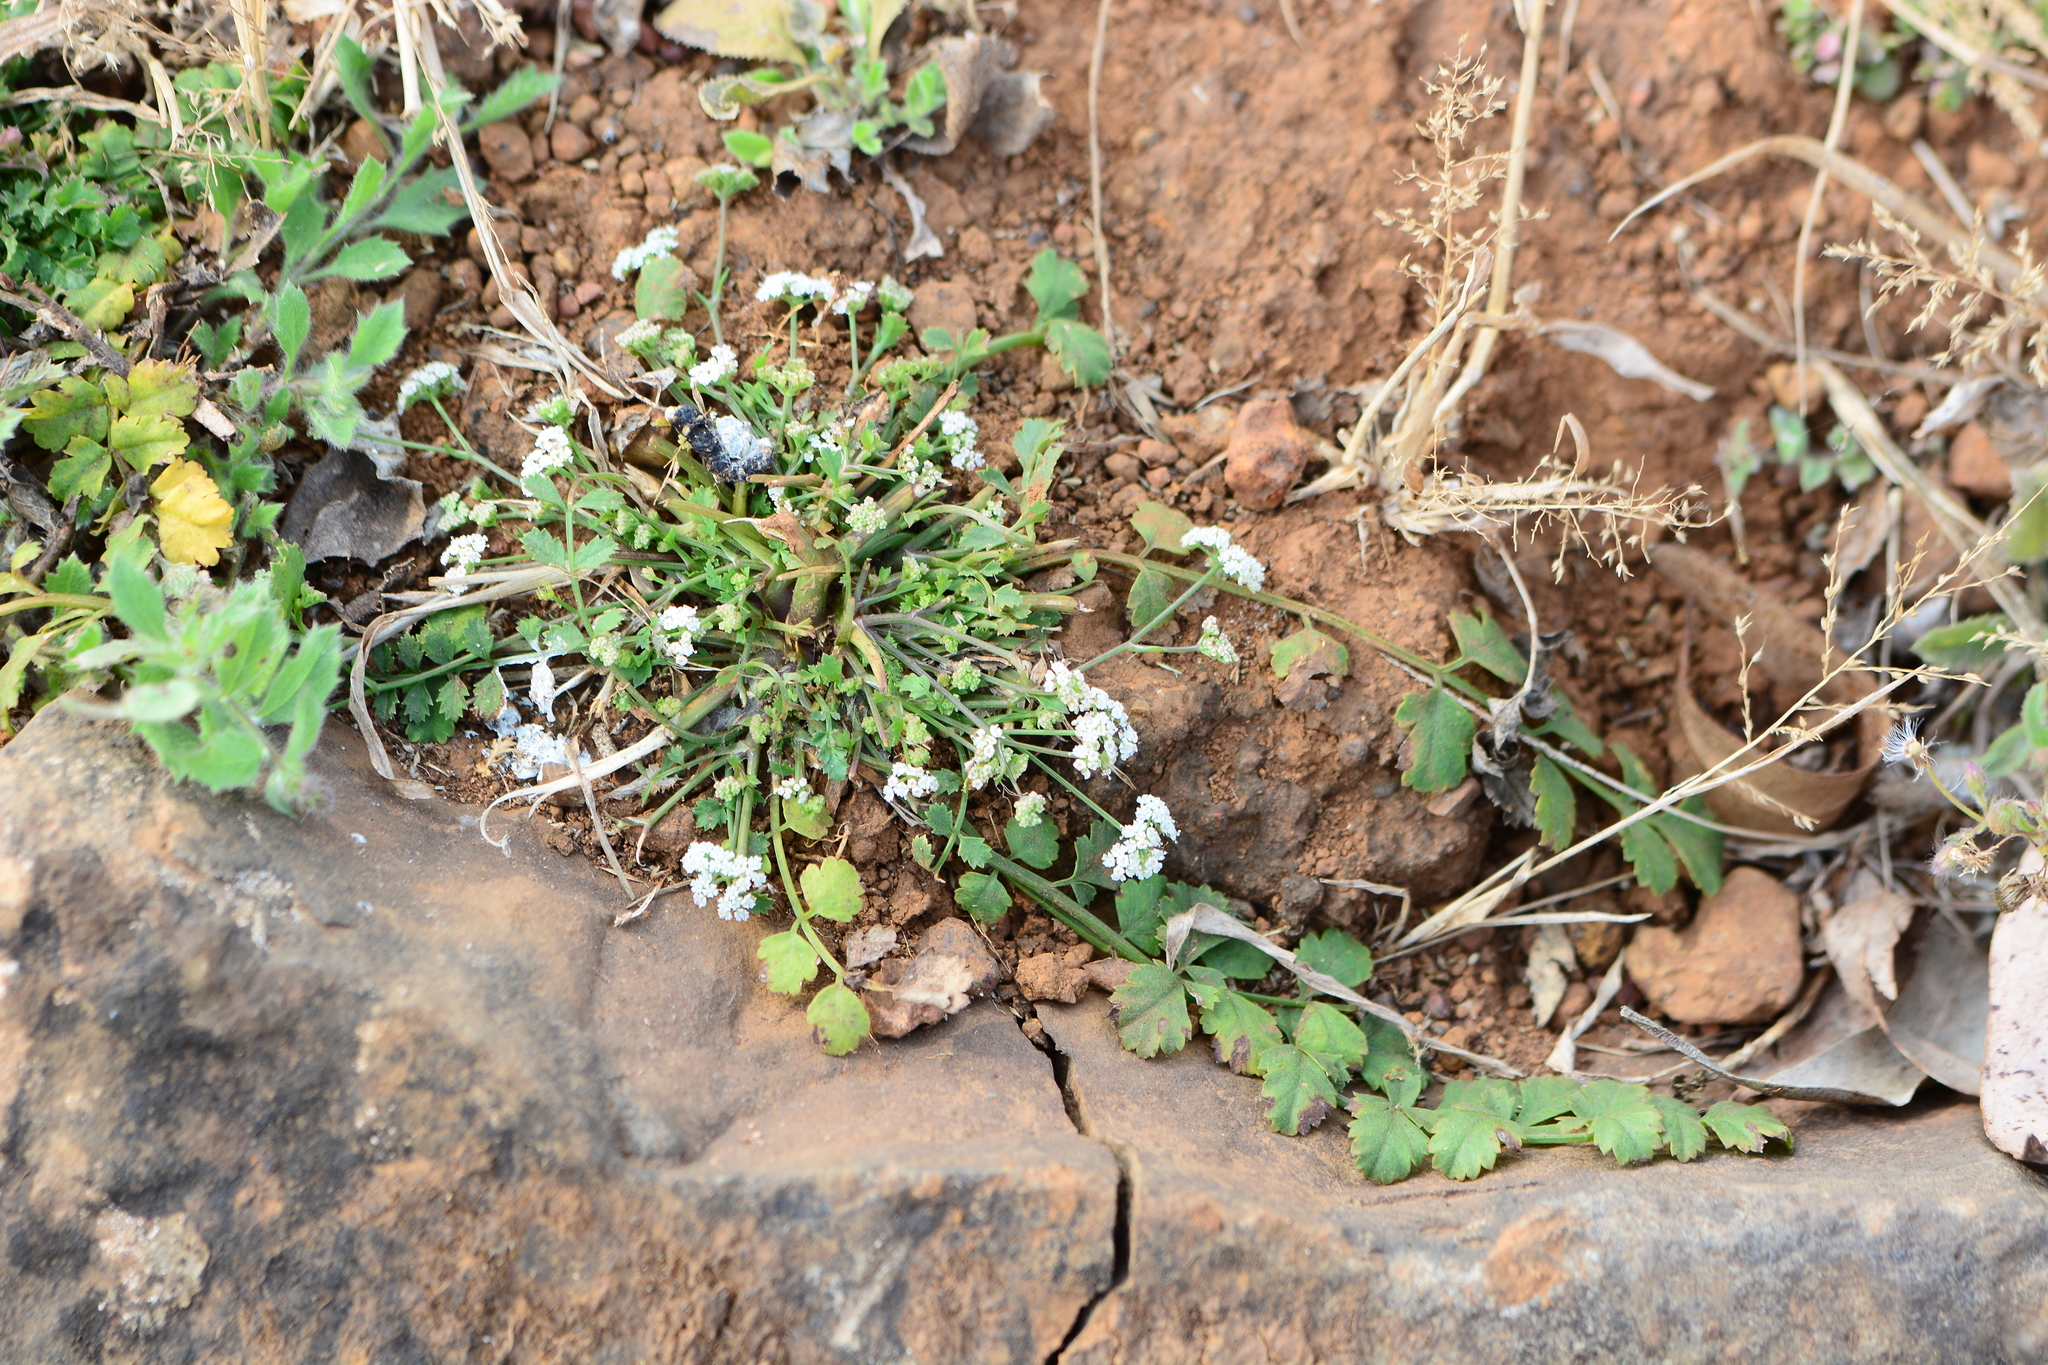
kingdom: Plantae
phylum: Tracheophyta
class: Magnoliopsida
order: Apiales
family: Apiaceae
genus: Pimpinella
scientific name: Pimpinella adscendens
